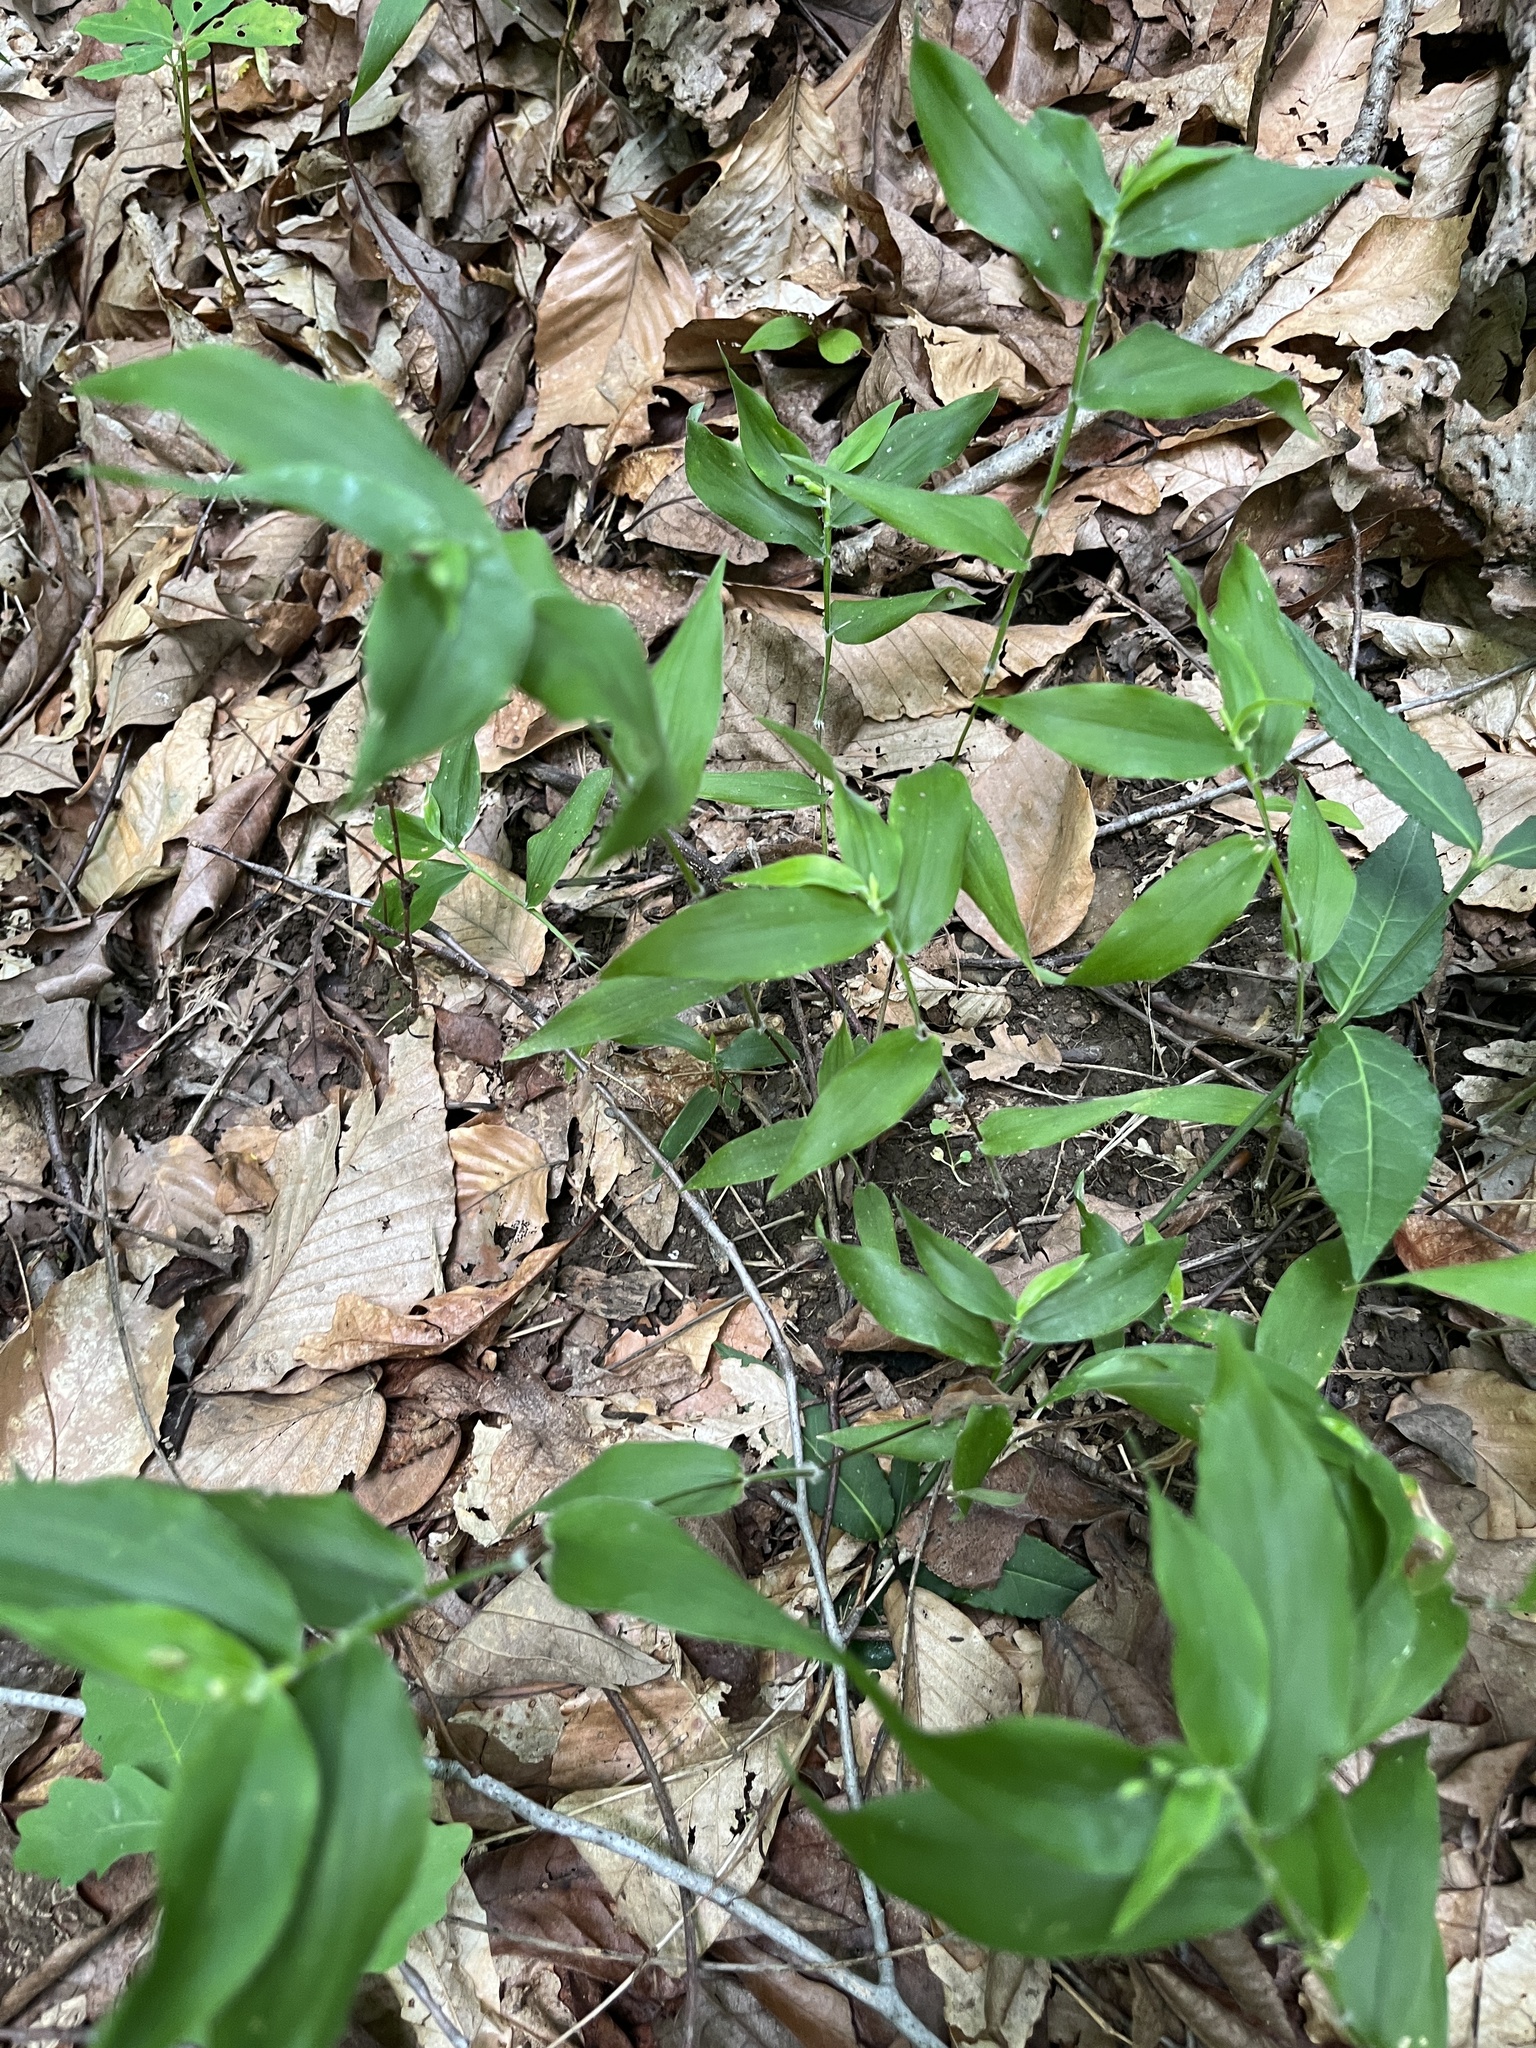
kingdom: Plantae
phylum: Tracheophyta
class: Liliopsida
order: Poales
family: Poaceae
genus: Dichanthelium
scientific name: Dichanthelium boscii
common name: Bosc's panic grass
